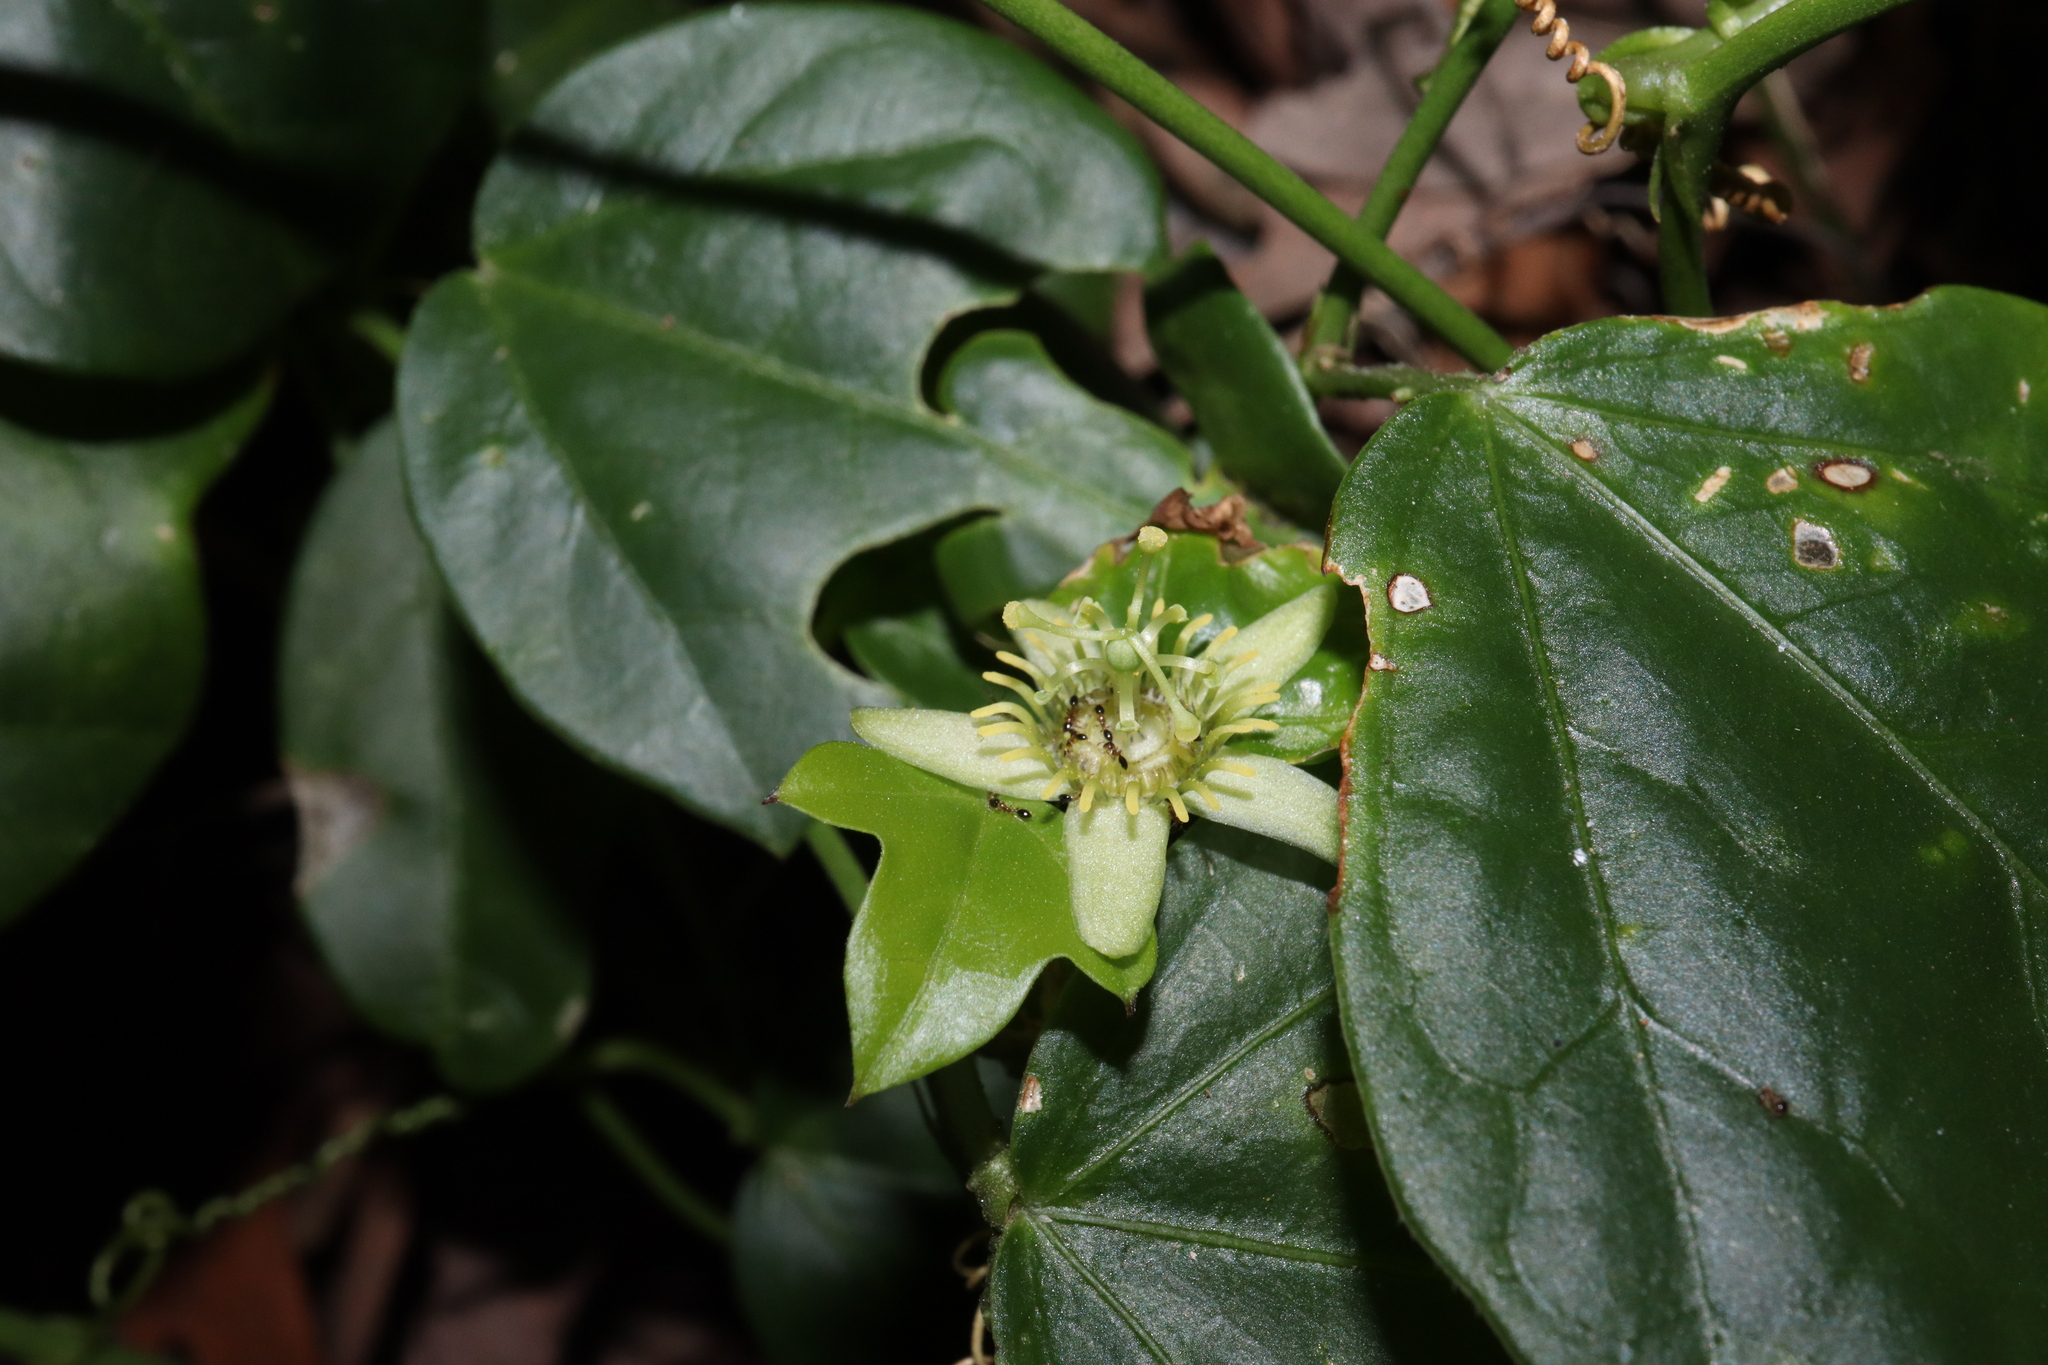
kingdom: Plantae
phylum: Tracheophyta
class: Magnoliopsida
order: Malpighiales
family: Passifloraceae
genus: Passiflora
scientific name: Passiflora pallida
